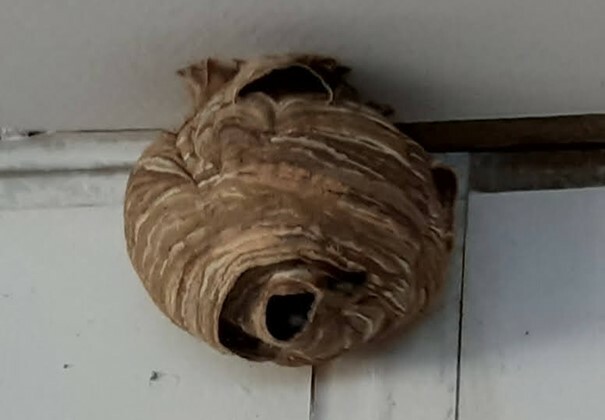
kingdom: Animalia
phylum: Arthropoda
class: Insecta
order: Hymenoptera
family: Vespidae
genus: Vespa
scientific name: Vespa velutina
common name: Asian hornet
